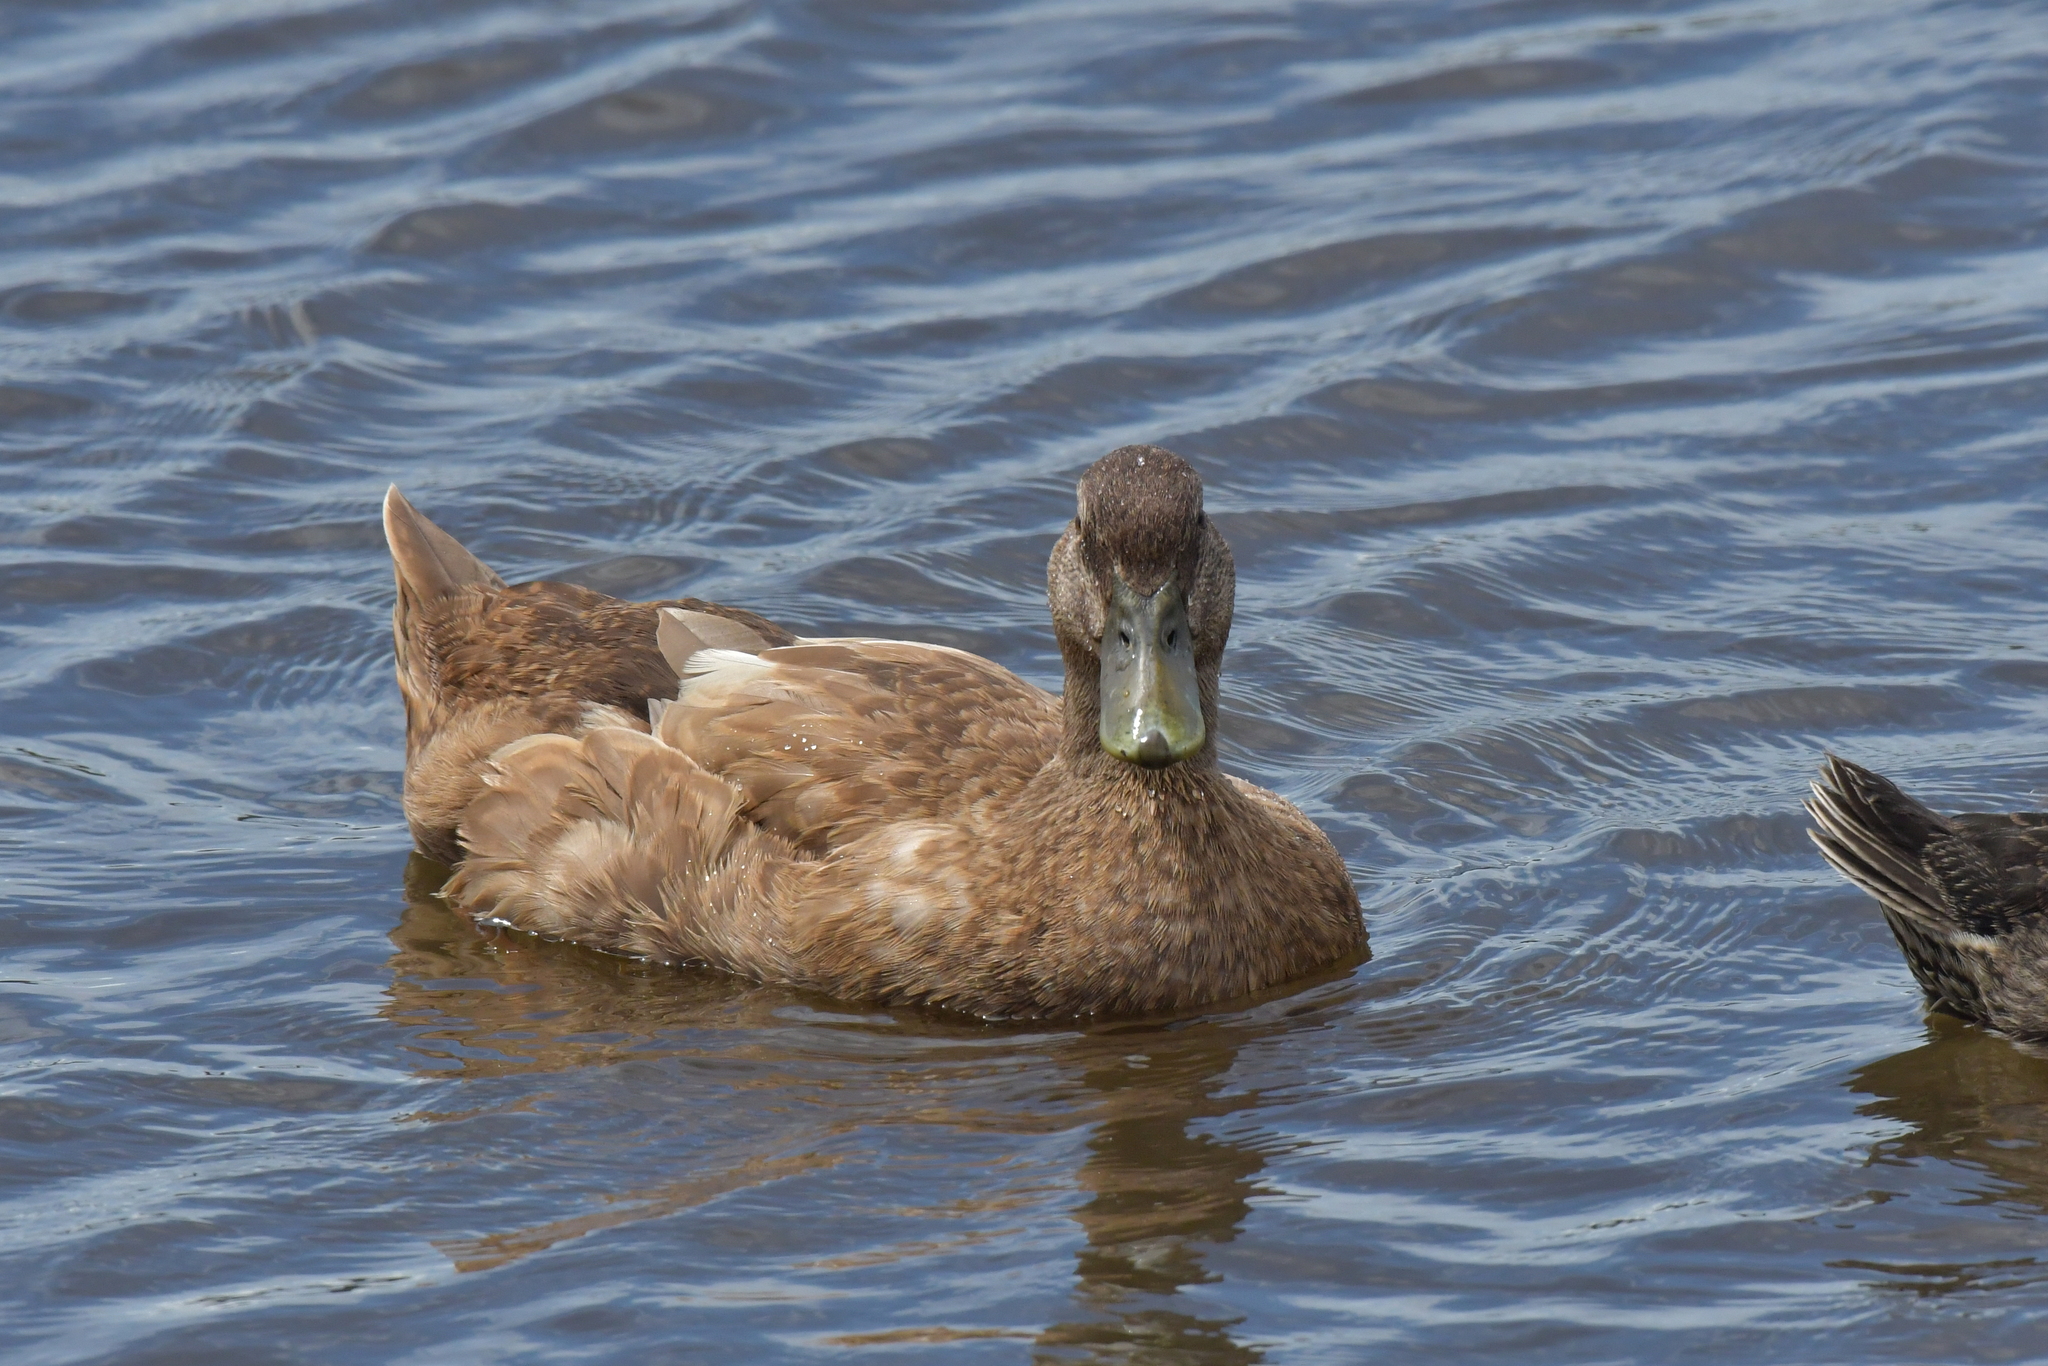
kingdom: Animalia
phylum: Chordata
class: Aves
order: Anseriformes
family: Anatidae
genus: Anas
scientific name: Anas platyrhynchos
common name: Mallard
